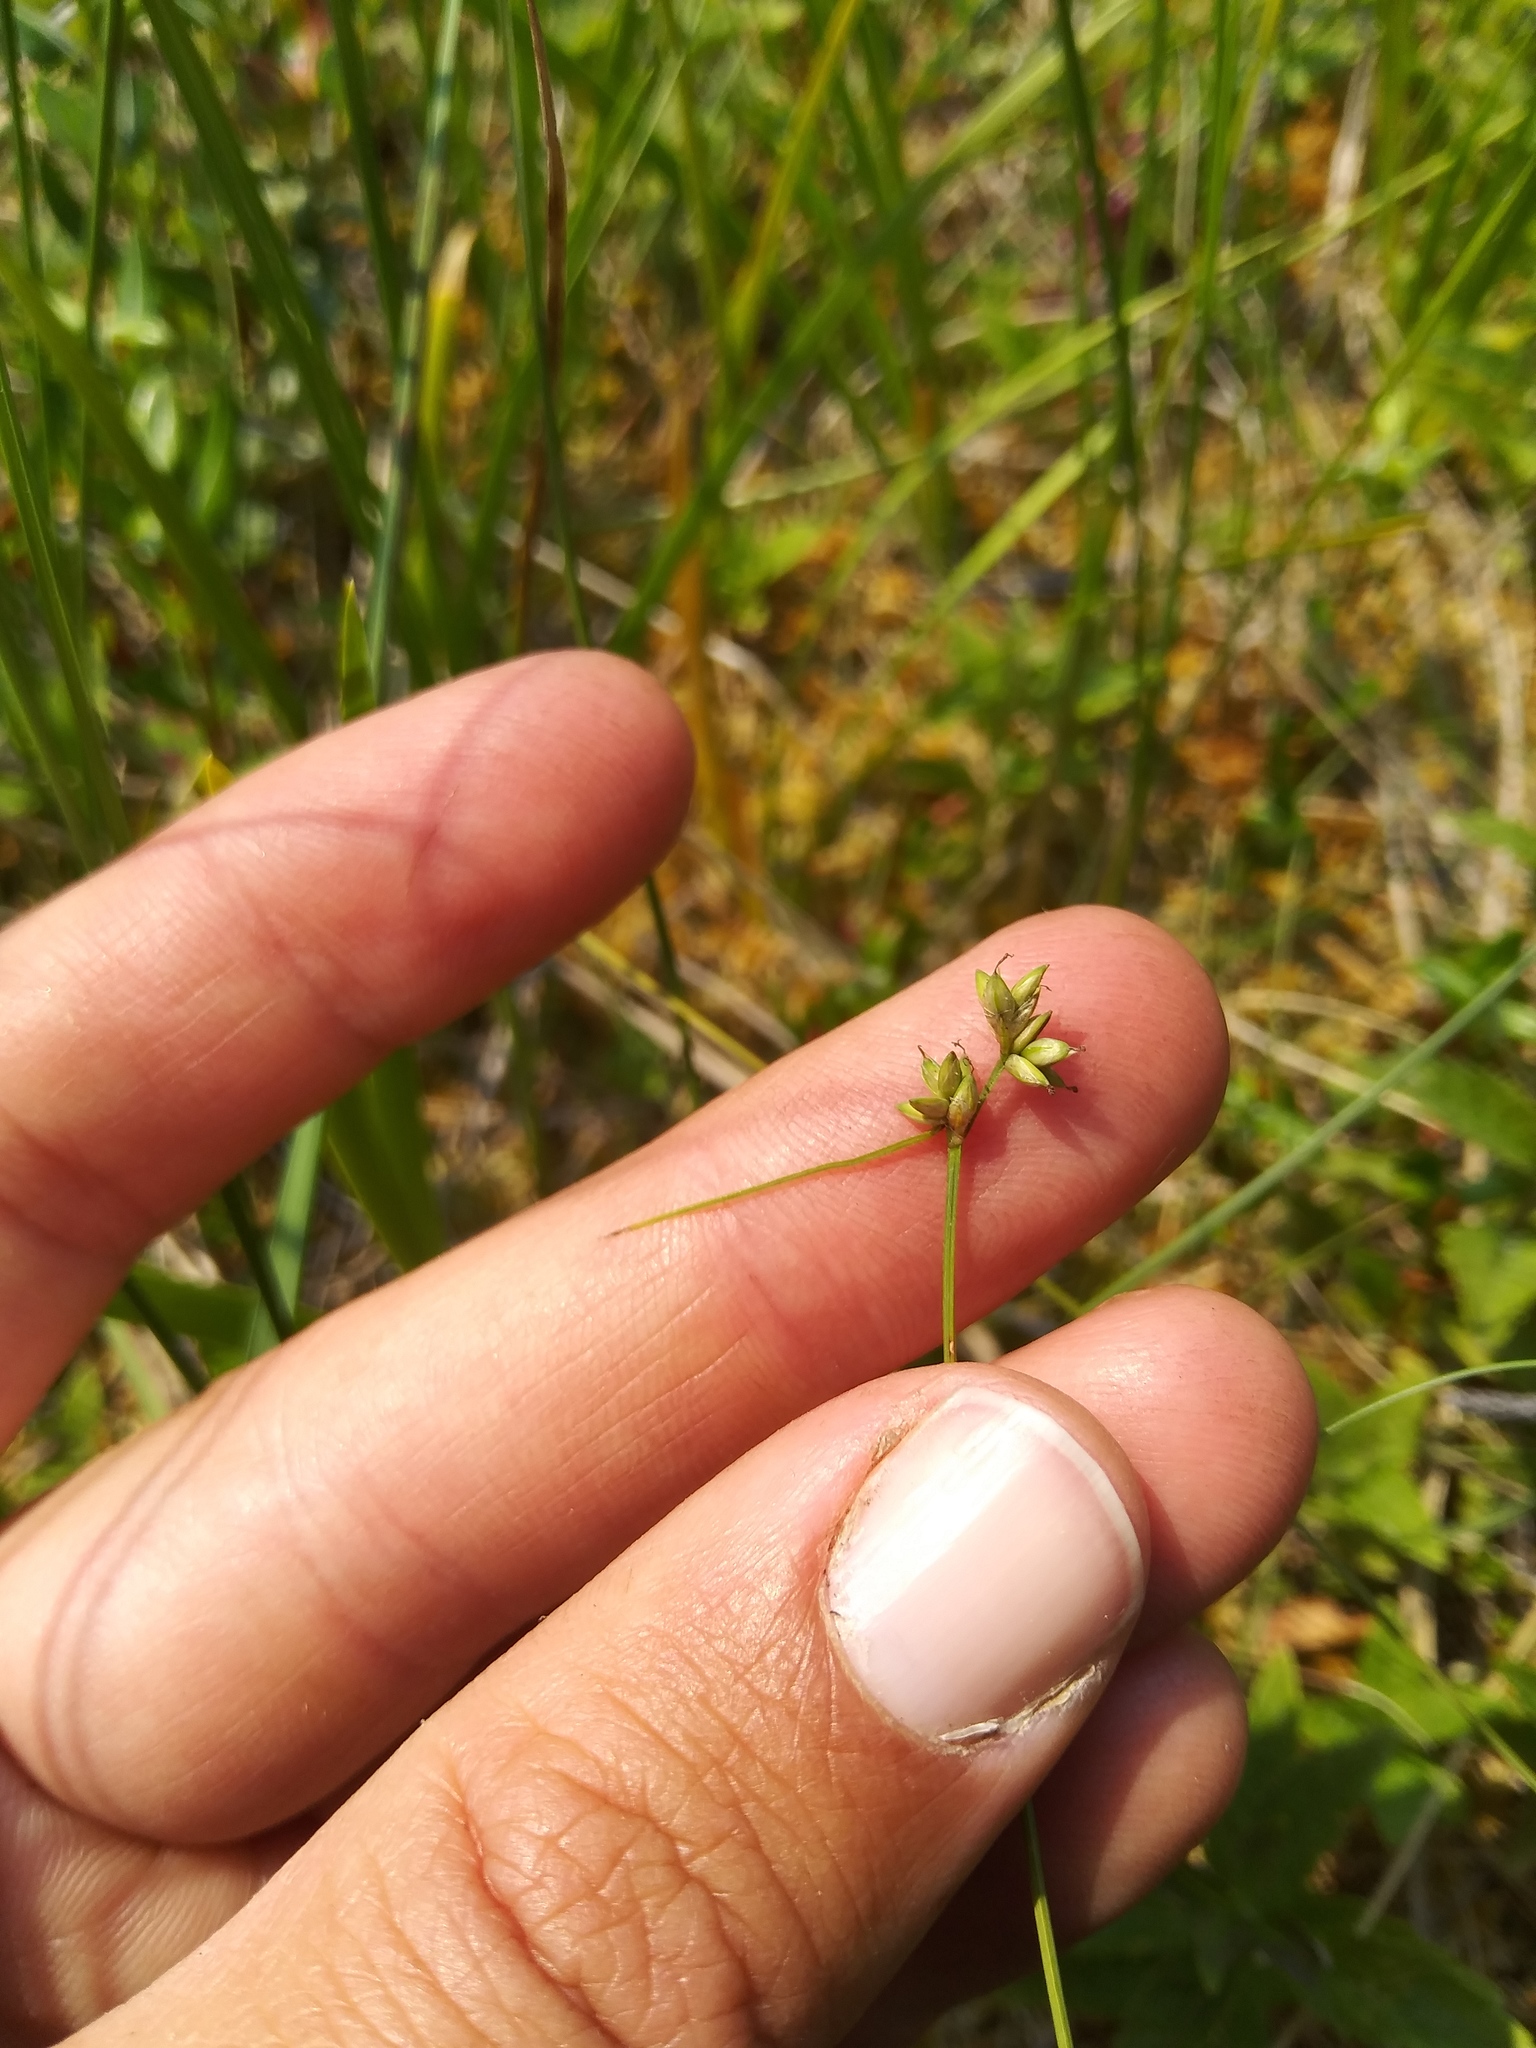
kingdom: Plantae
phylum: Tracheophyta
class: Liliopsida
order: Poales
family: Cyperaceae
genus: Carex
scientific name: Carex tenuiflora
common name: Sparse-flowered sedge
